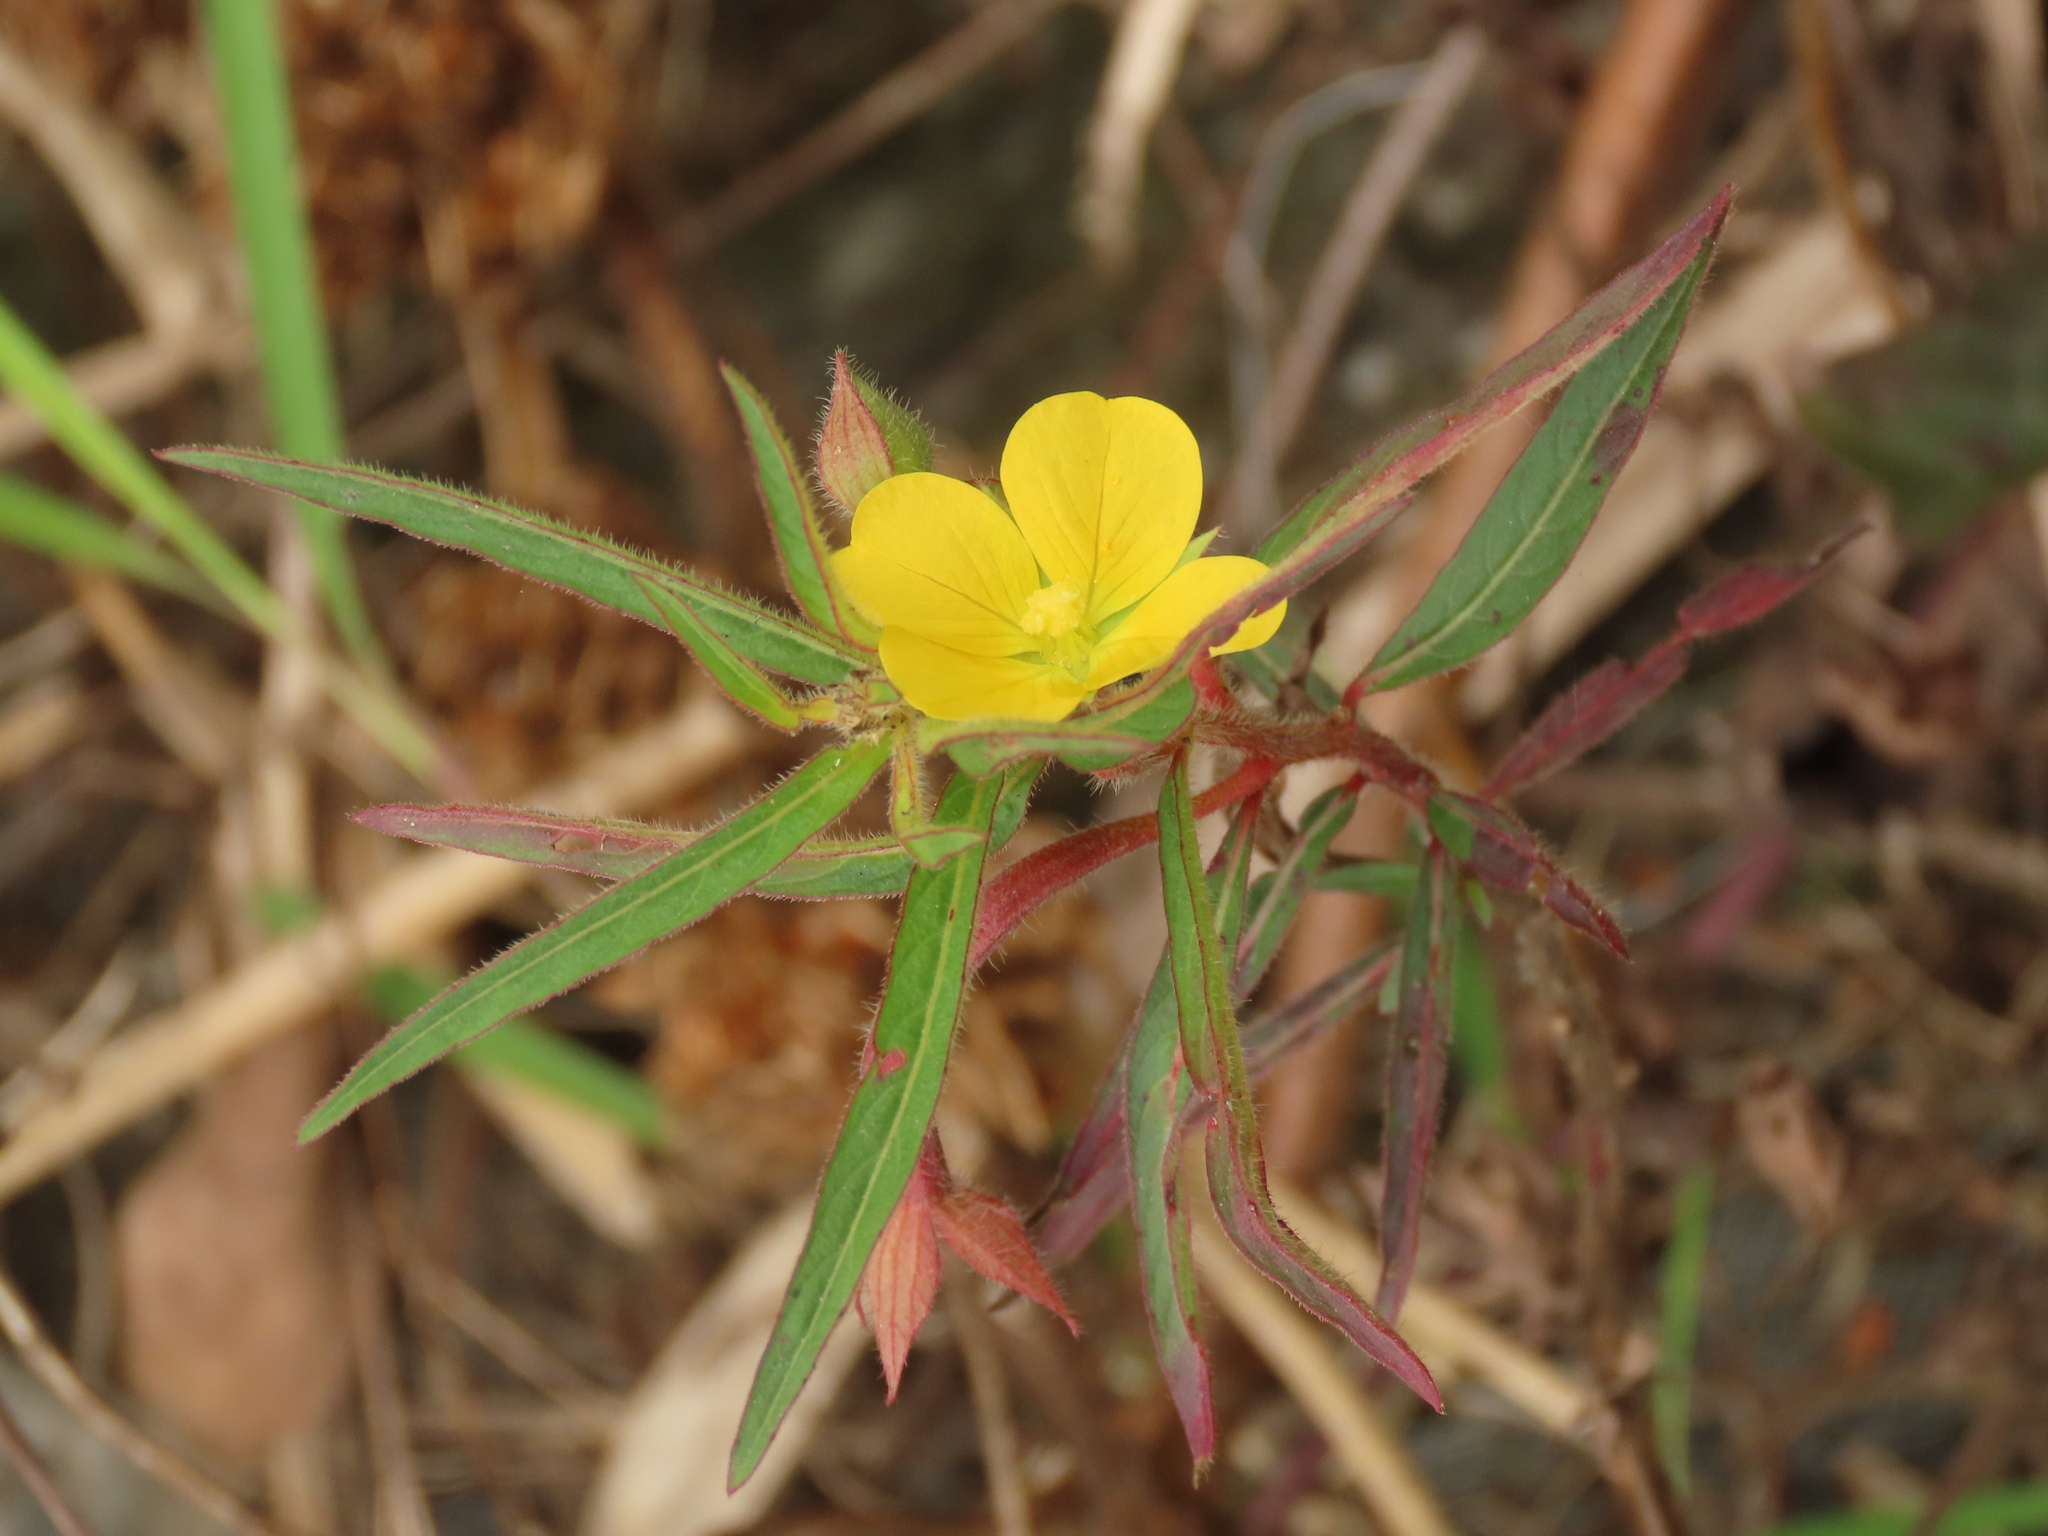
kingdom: Plantae
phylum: Tracheophyta
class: Magnoliopsida
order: Myrtales
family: Onagraceae
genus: Ludwigia
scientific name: Ludwigia octovalvis
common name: Water-primrose
